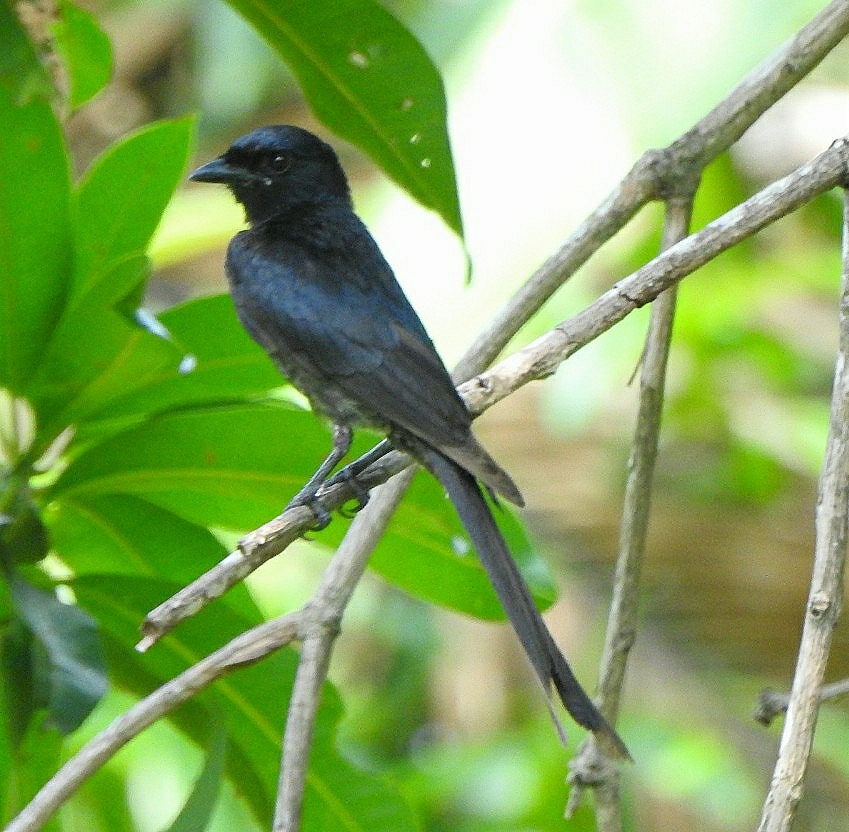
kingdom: Animalia
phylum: Chordata
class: Aves
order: Passeriformes
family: Dicruridae
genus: Dicrurus
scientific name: Dicrurus macrocercus
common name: Black drongo
